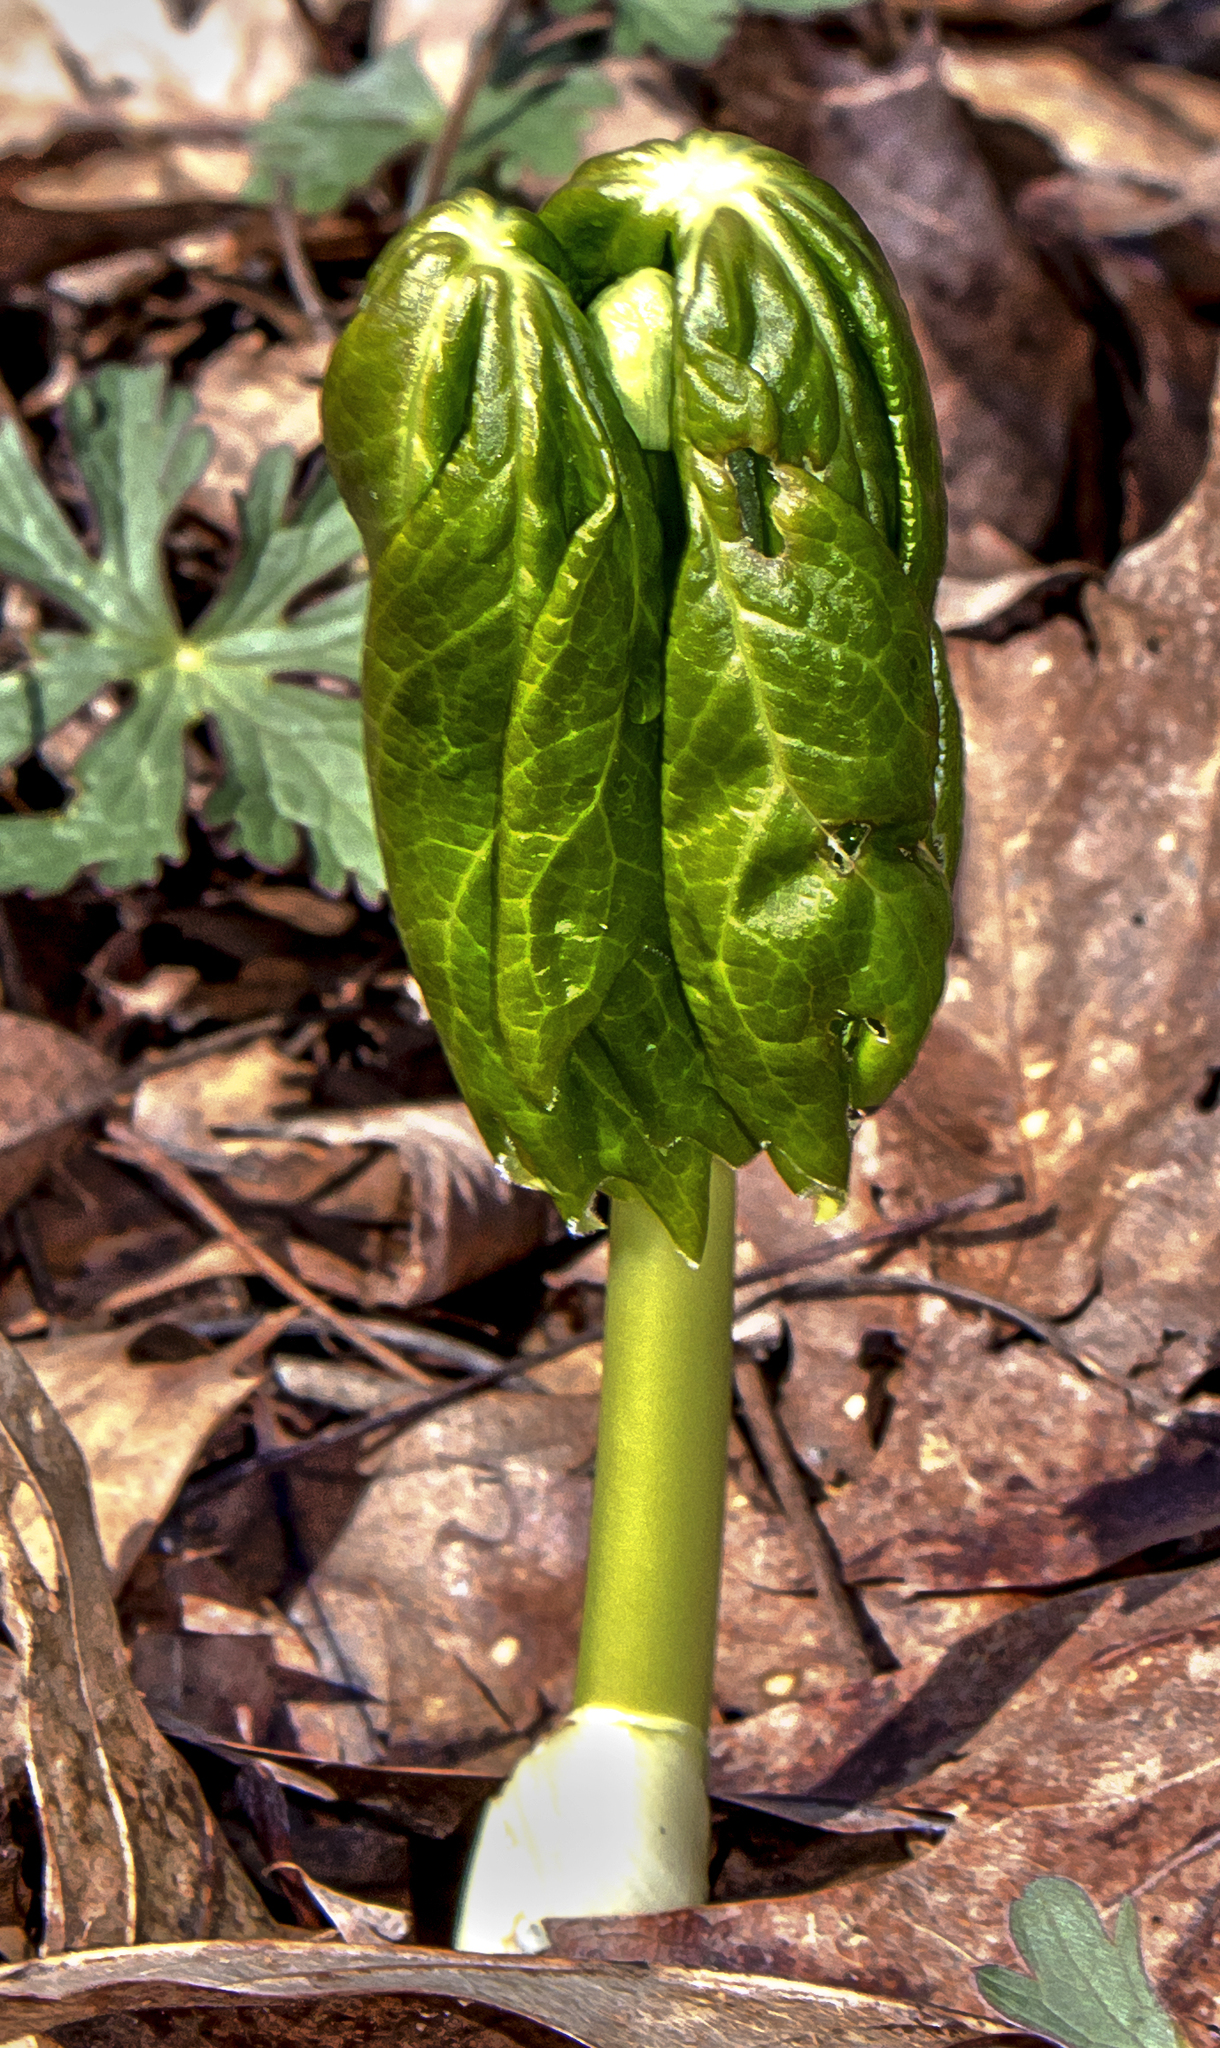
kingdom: Plantae
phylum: Tracheophyta
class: Magnoliopsida
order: Ranunculales
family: Berberidaceae
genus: Podophyllum
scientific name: Podophyllum peltatum
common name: Wild mandrake
